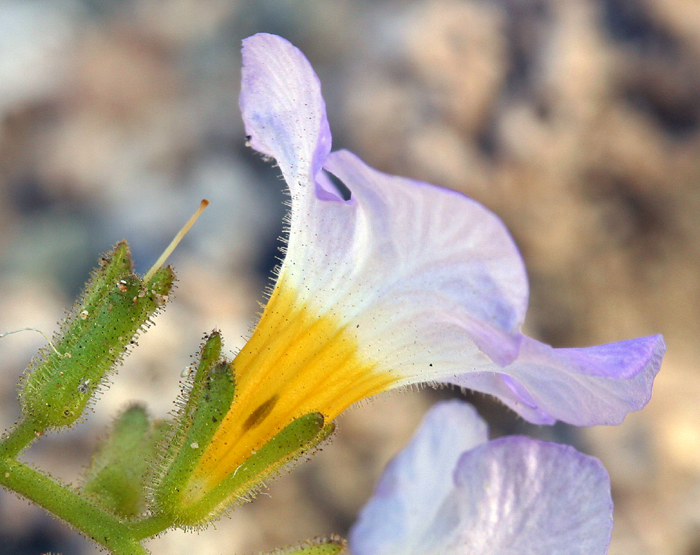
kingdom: Plantae
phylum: Tracheophyta
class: Magnoliopsida
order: Boraginales
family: Hydrophyllaceae
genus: Phacelia
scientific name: Phacelia fremontii
